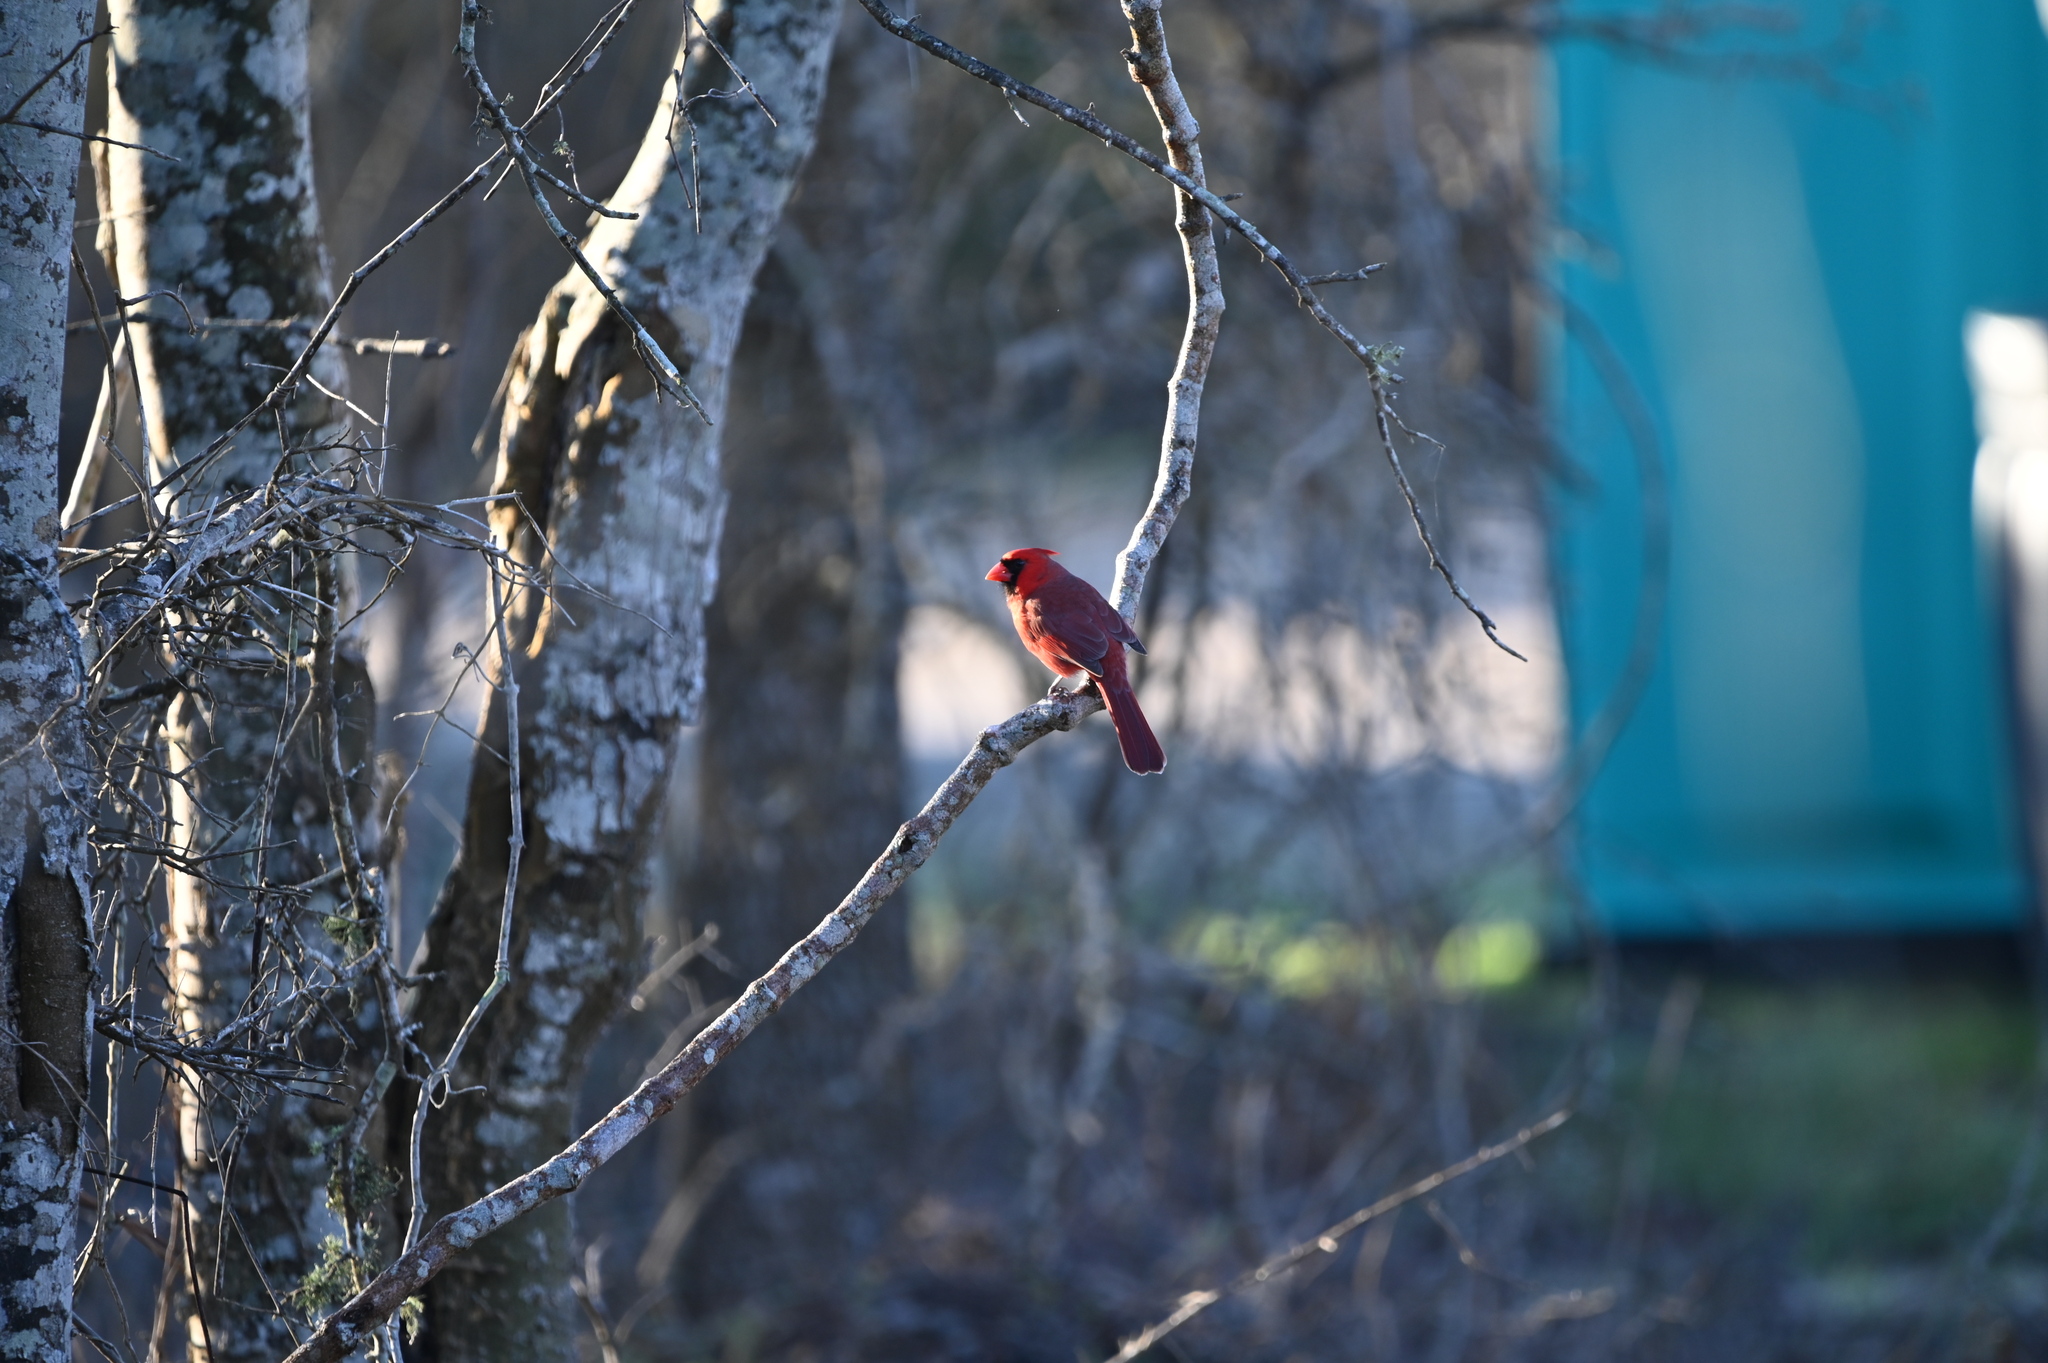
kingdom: Animalia
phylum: Chordata
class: Aves
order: Passeriformes
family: Cardinalidae
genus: Cardinalis
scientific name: Cardinalis cardinalis
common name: Northern cardinal
